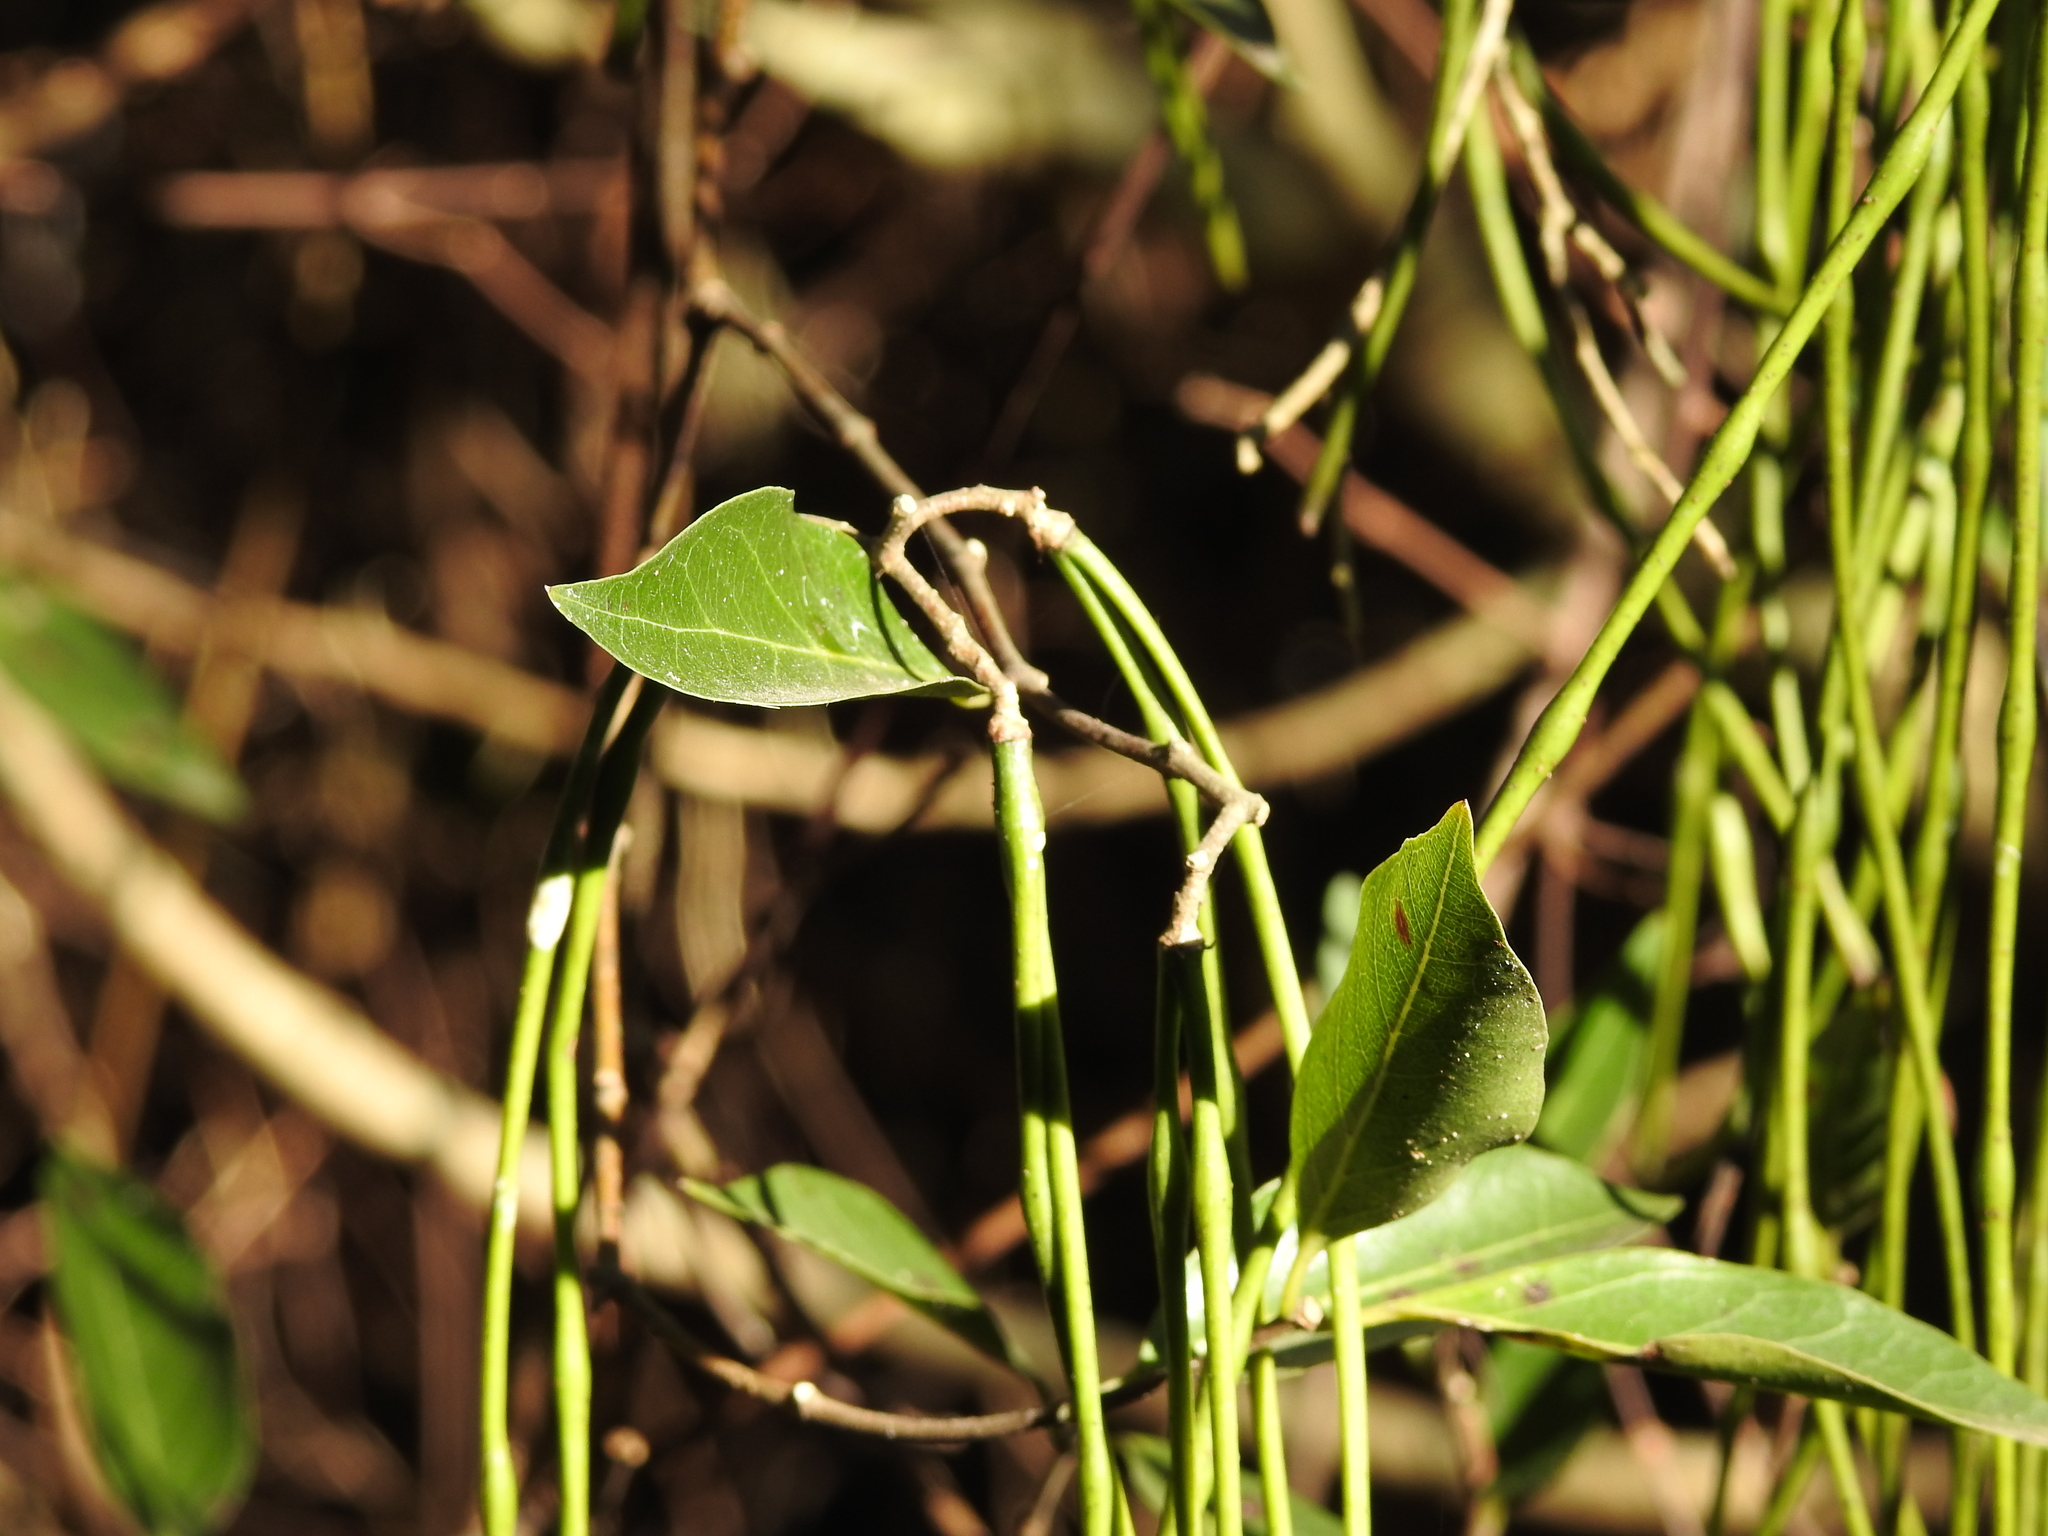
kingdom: Plantae
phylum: Tracheophyta
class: Magnoliopsida
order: Gentianales
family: Apocynaceae
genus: Forsteronia
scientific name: Forsteronia glabrescens
